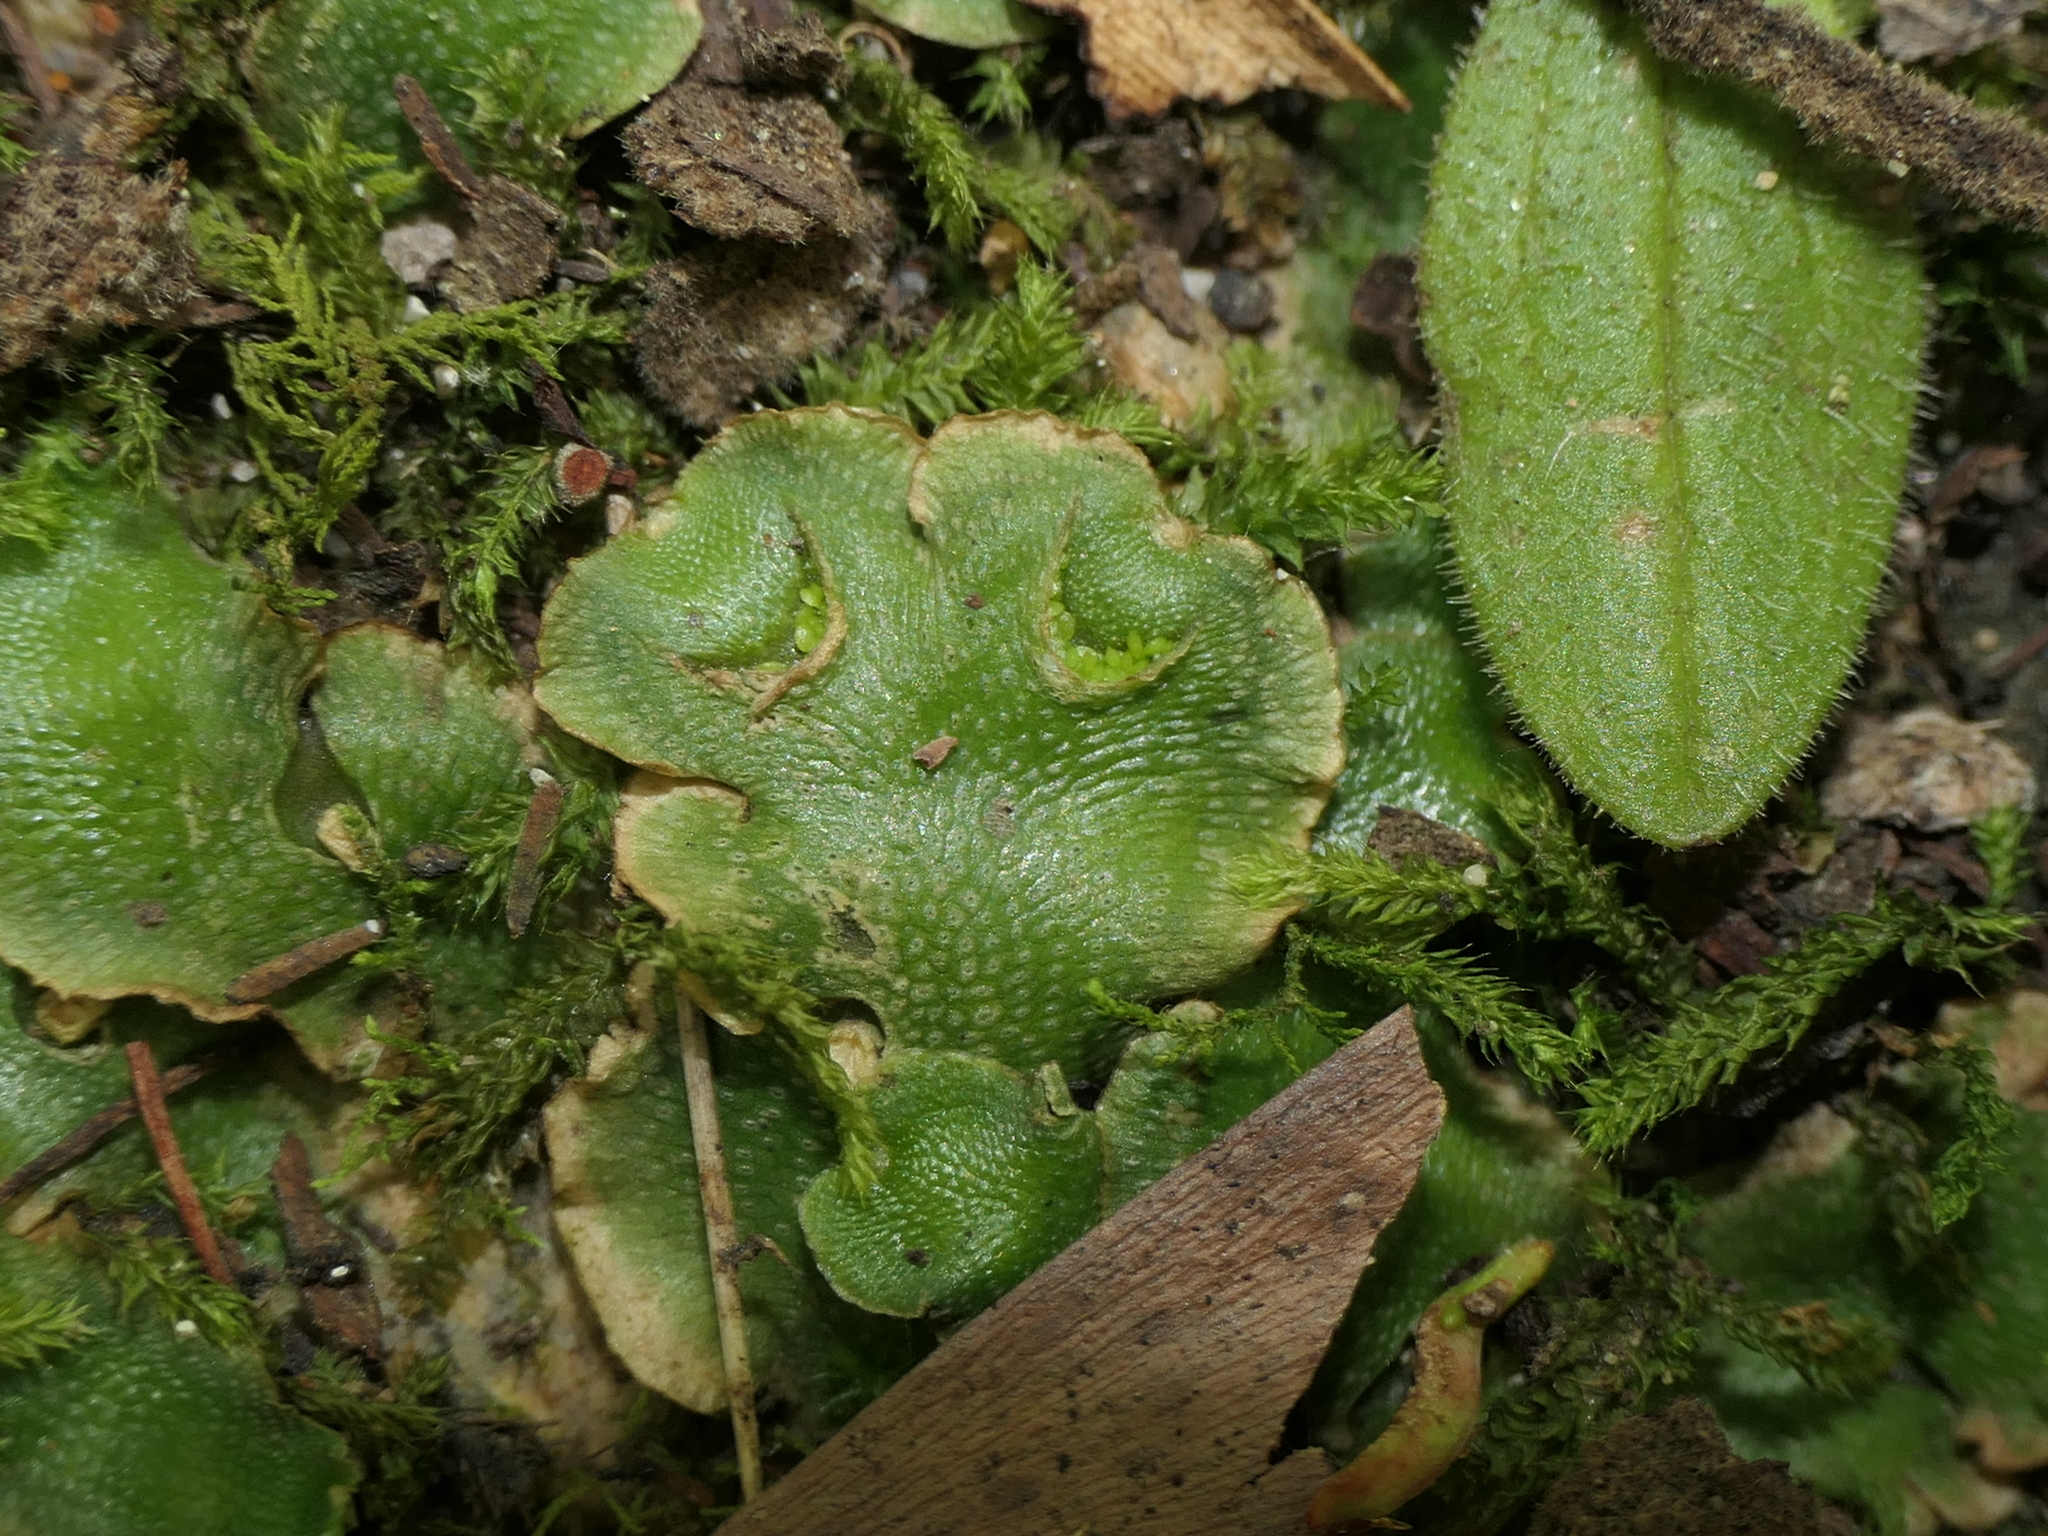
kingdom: Plantae
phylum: Marchantiophyta
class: Marchantiopsida
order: Lunulariales
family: Lunulariaceae
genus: Lunularia
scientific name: Lunularia cruciata
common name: Crescent-cup liverwort
